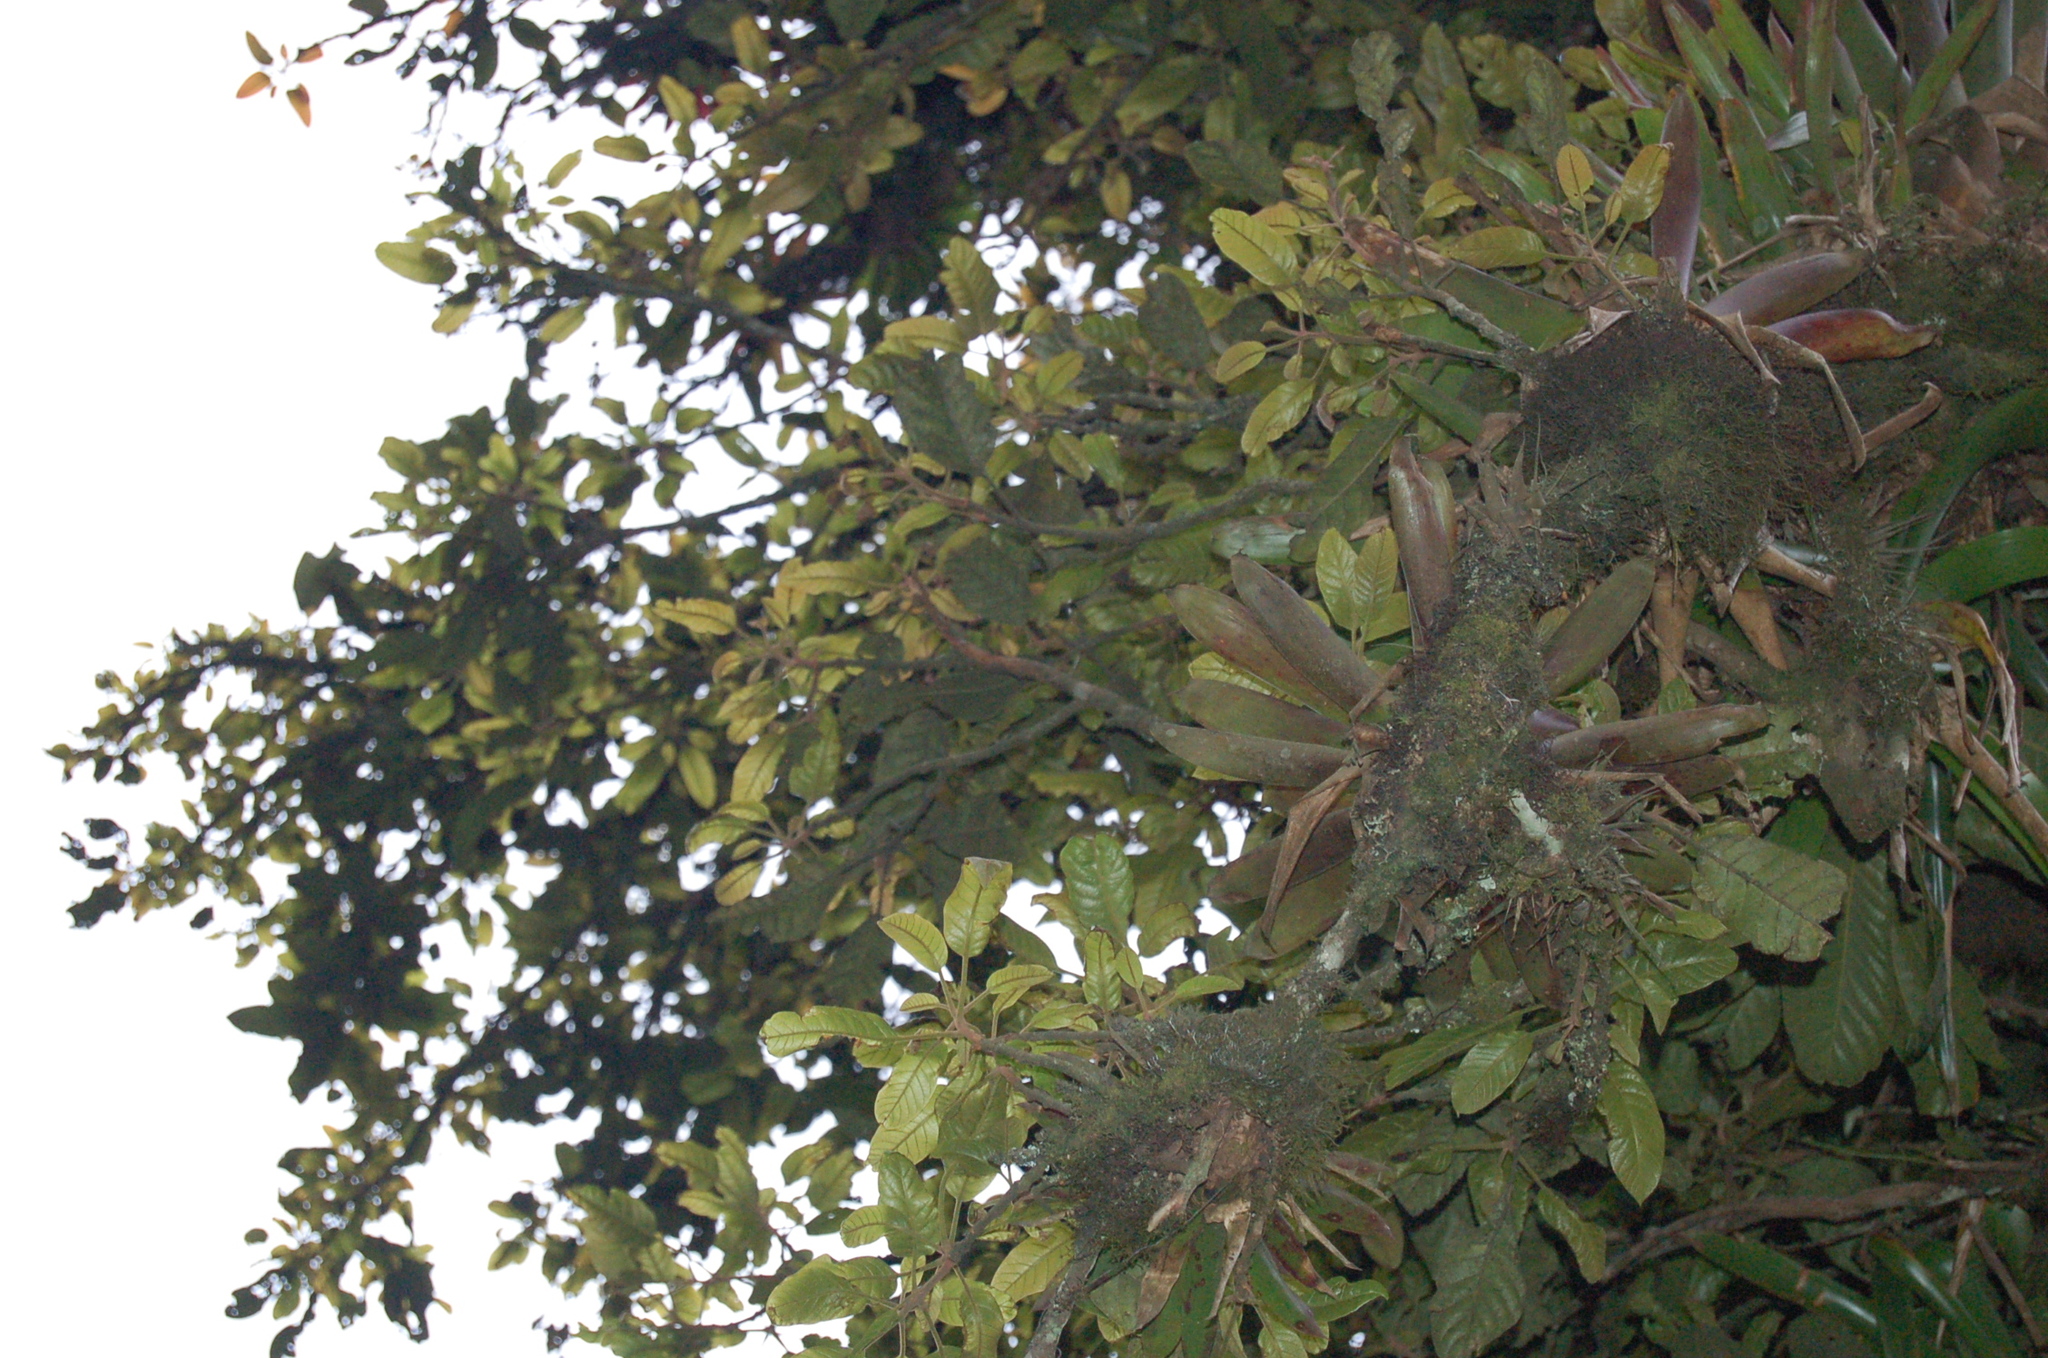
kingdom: Plantae
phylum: Tracheophyta
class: Magnoliopsida
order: Proteales
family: Sabiaceae
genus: Meliosma
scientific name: Meliosma grandifolia
